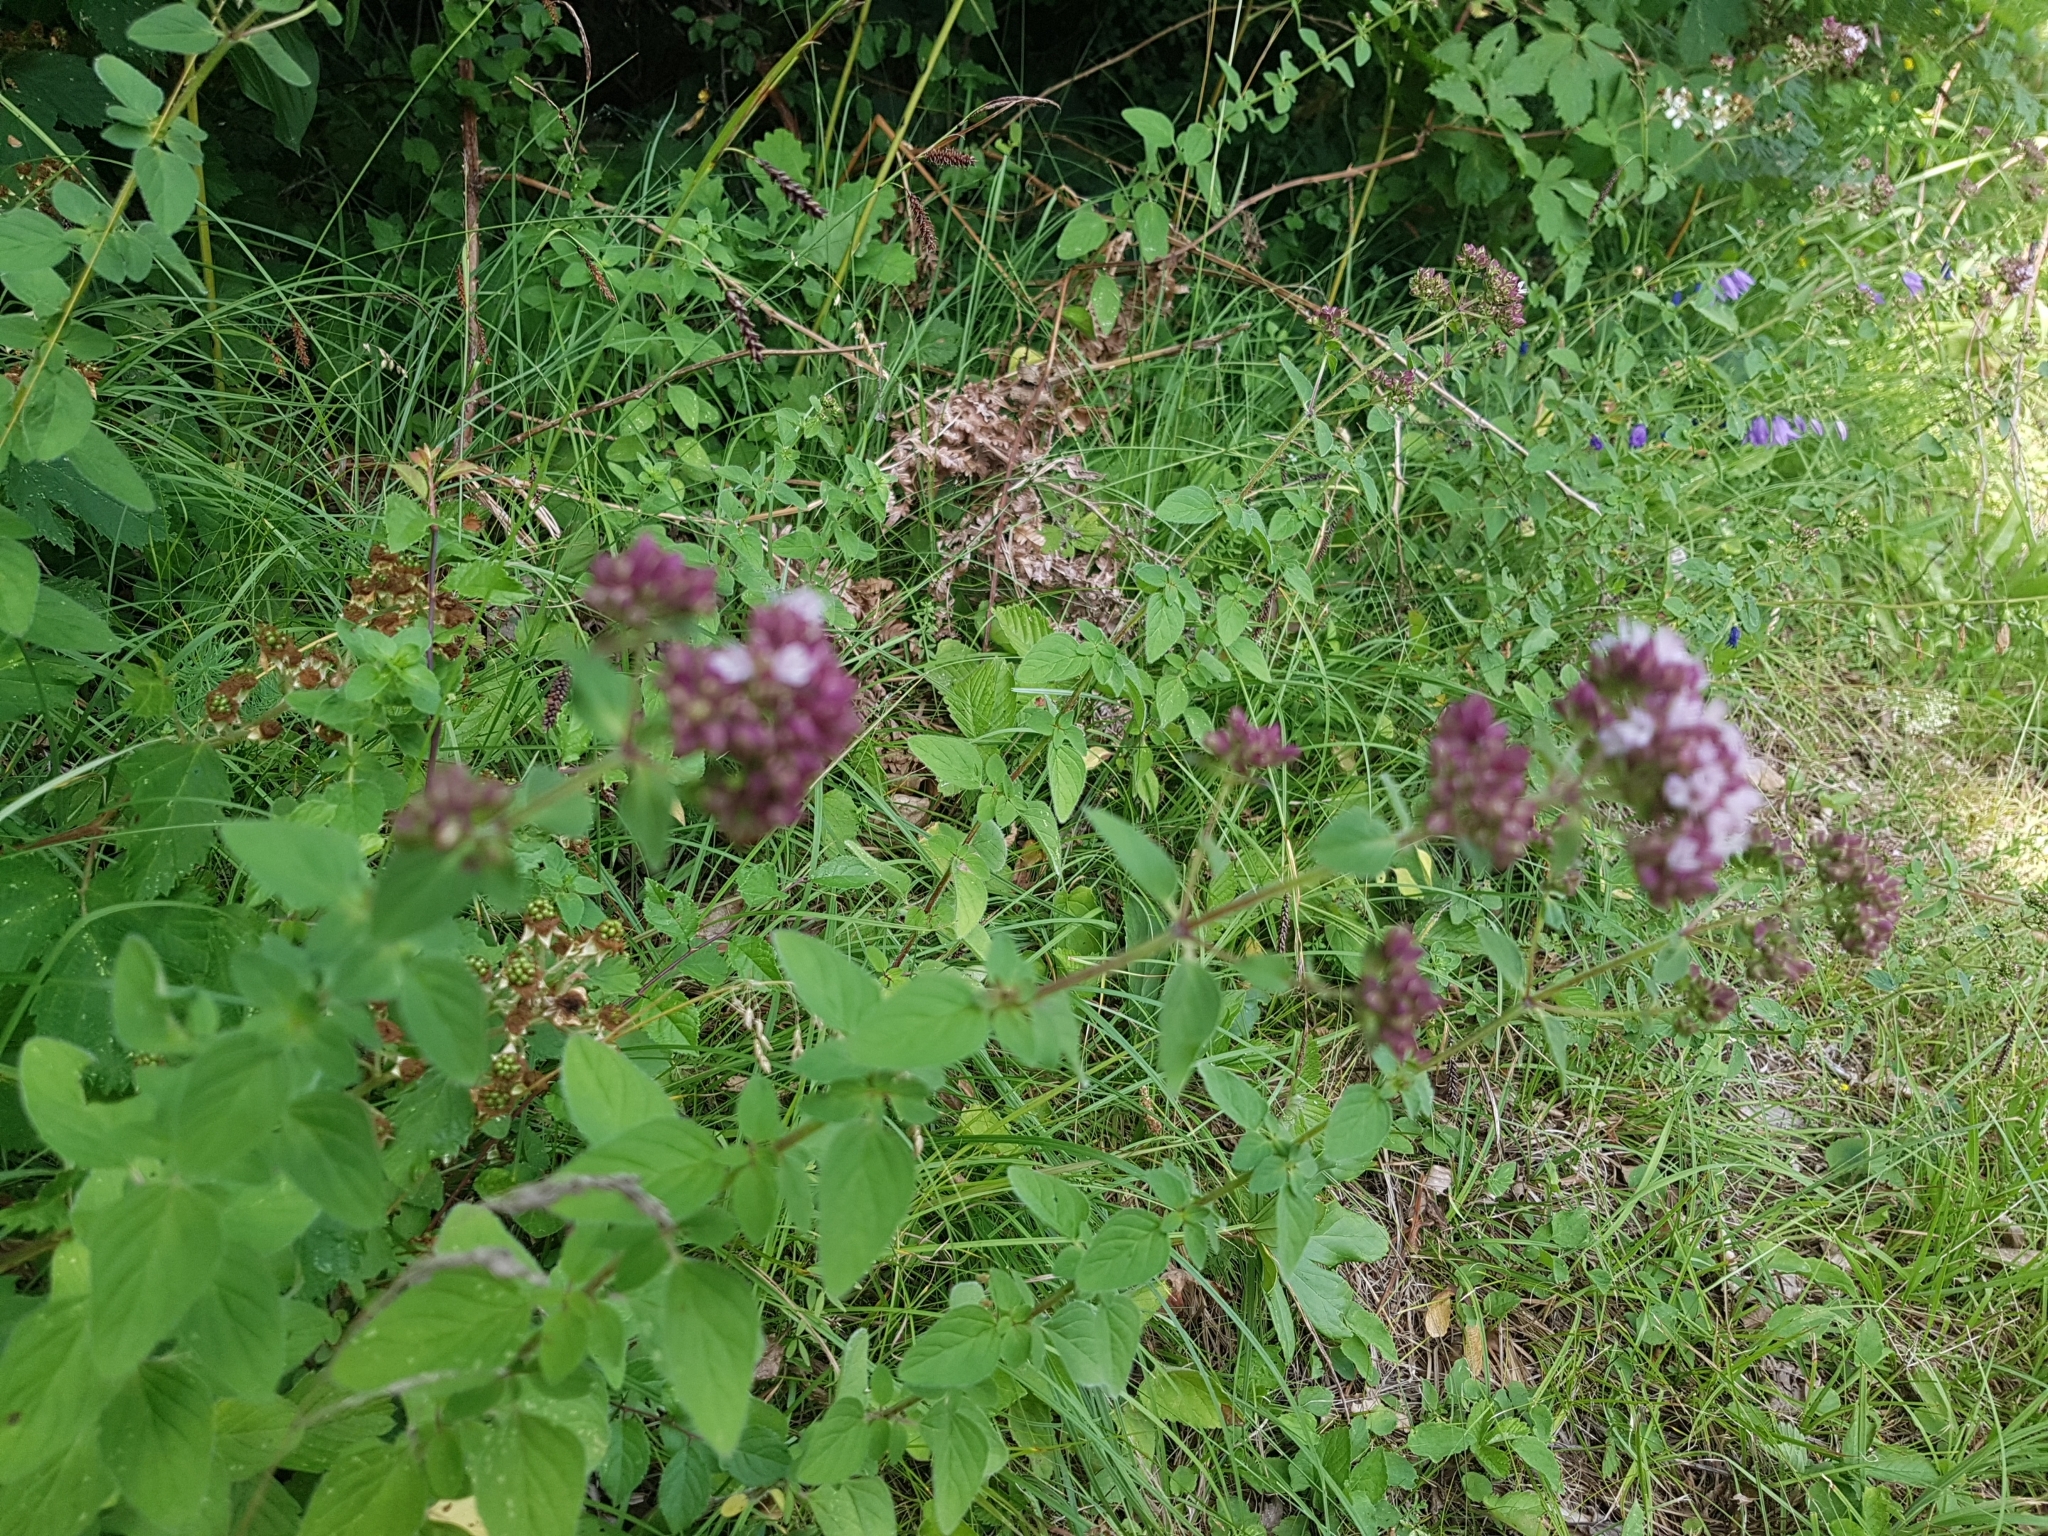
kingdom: Plantae
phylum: Tracheophyta
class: Magnoliopsida
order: Lamiales
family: Lamiaceae
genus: Origanum
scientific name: Origanum vulgare
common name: Wild marjoram
